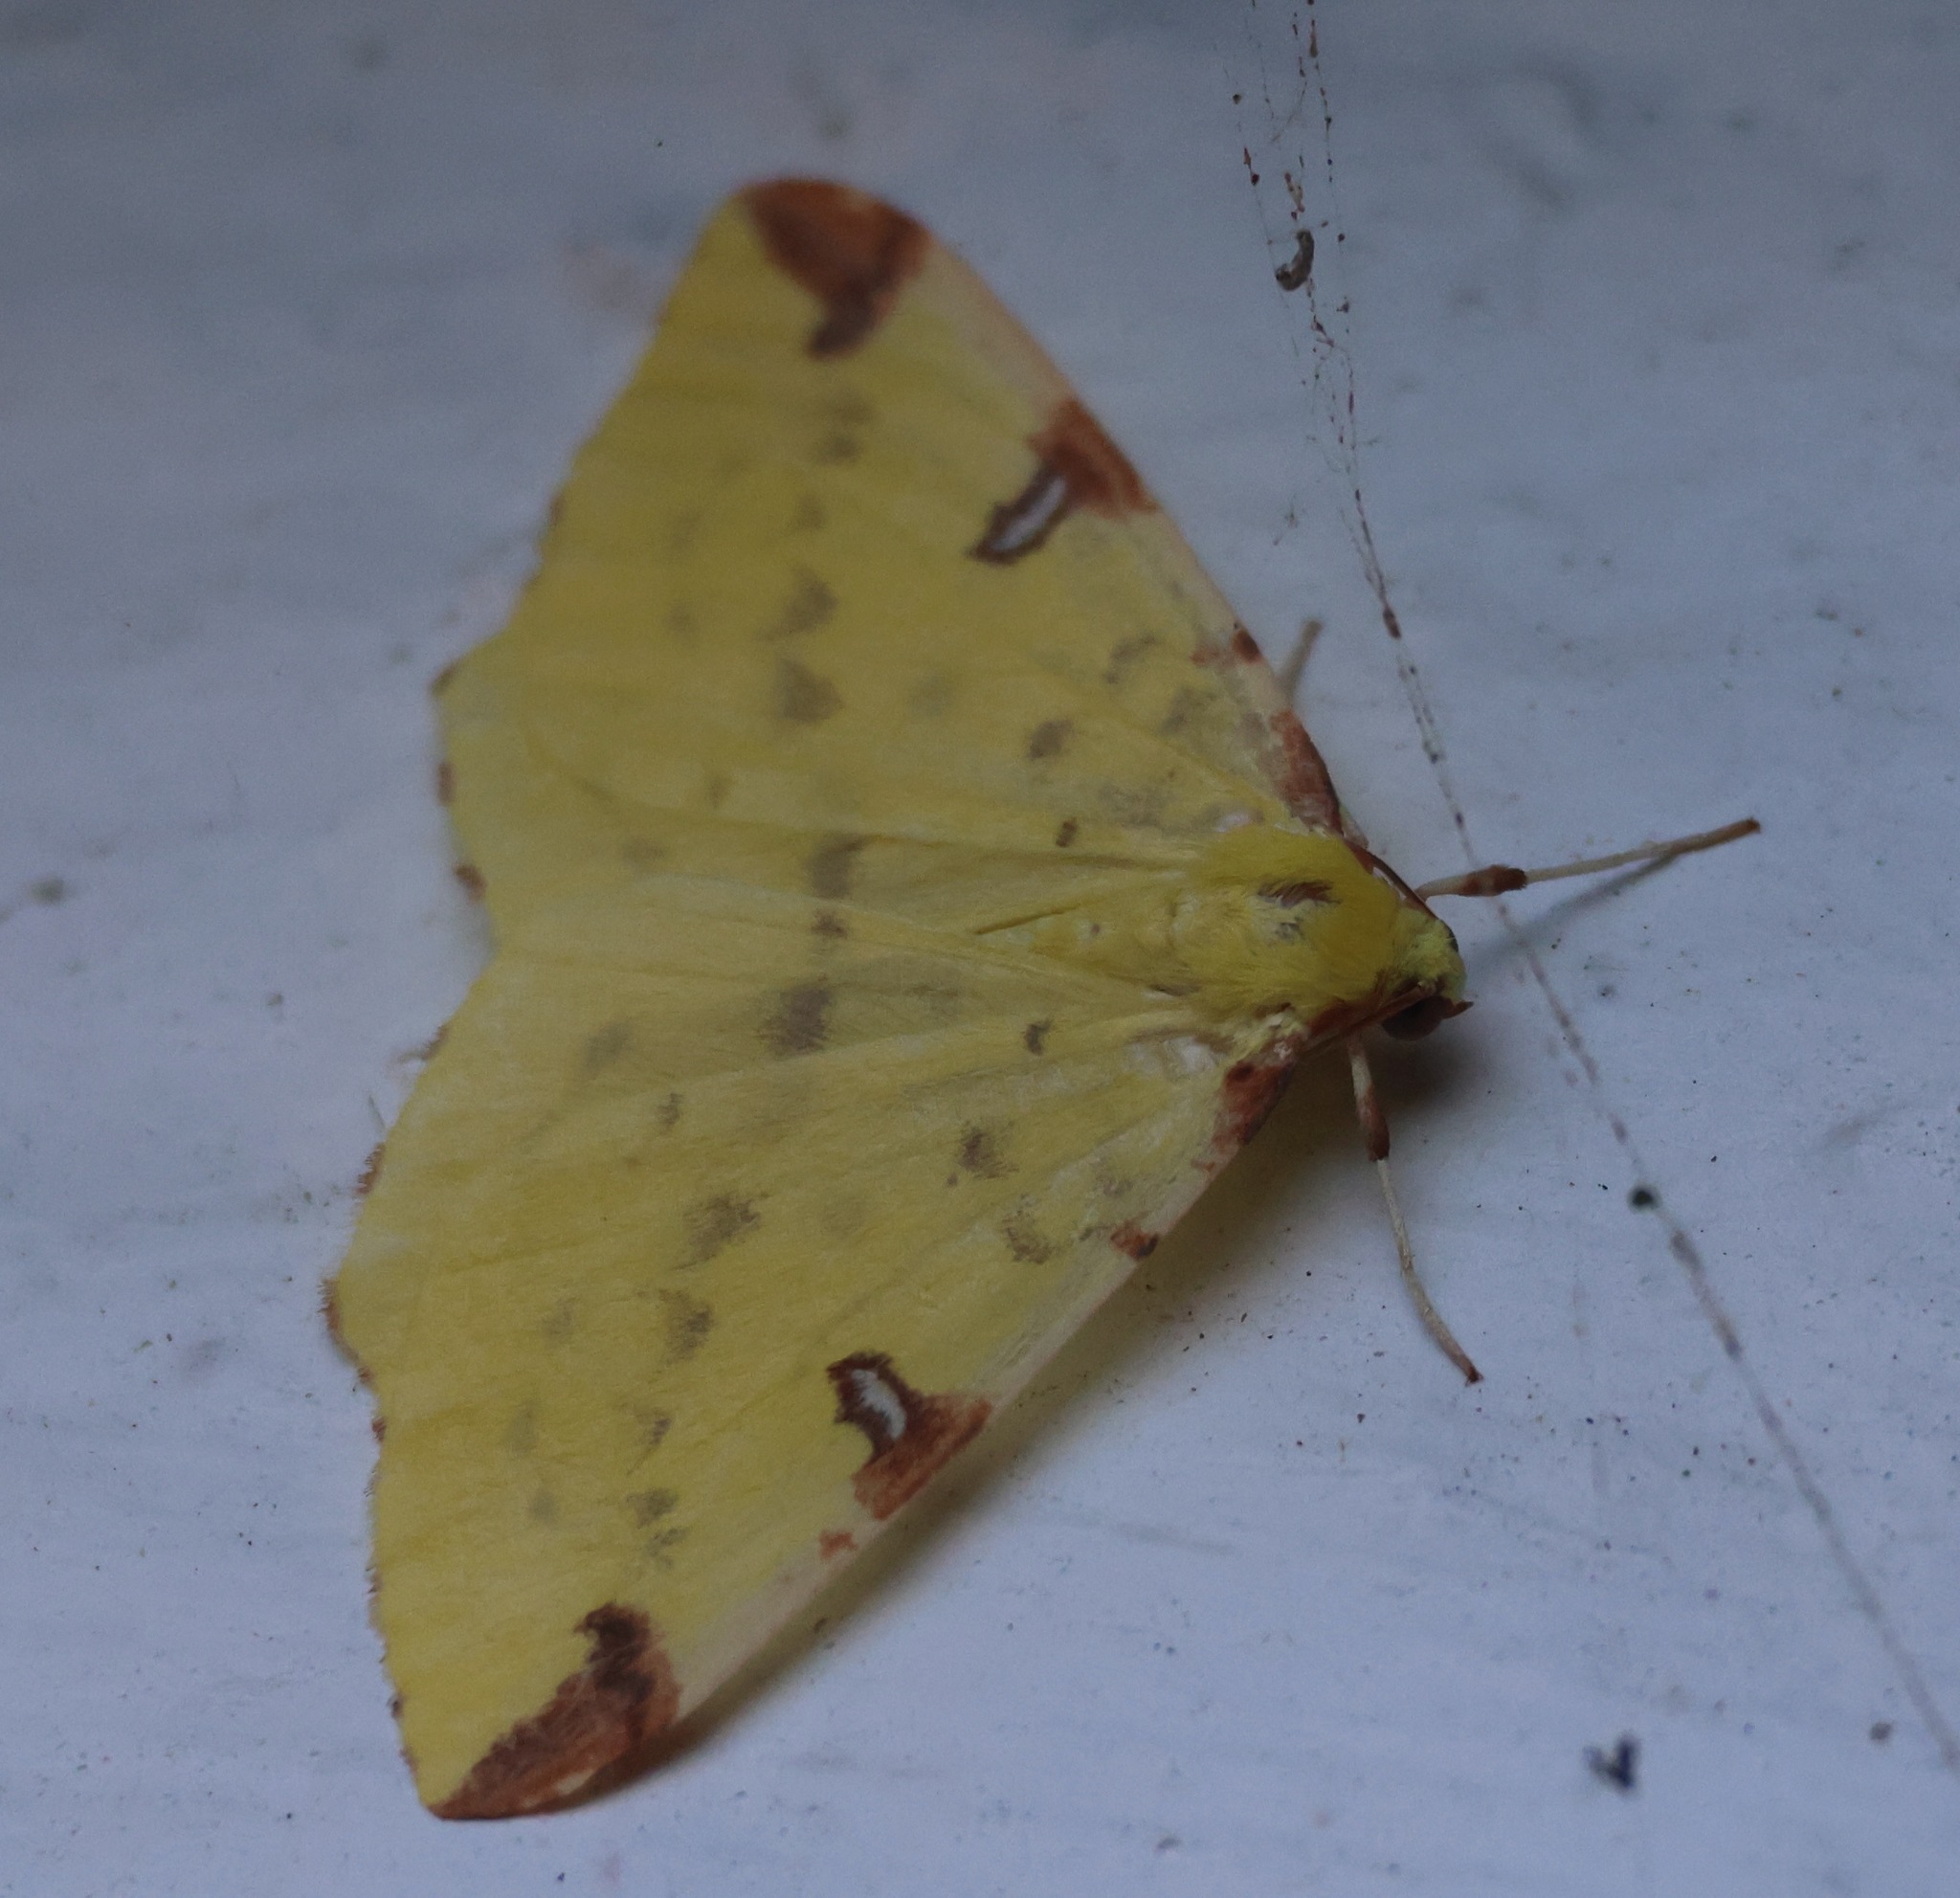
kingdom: Animalia
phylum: Arthropoda
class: Insecta
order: Lepidoptera
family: Geometridae
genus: Opisthograptis
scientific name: Opisthograptis luteolata
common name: Brimstone moth
